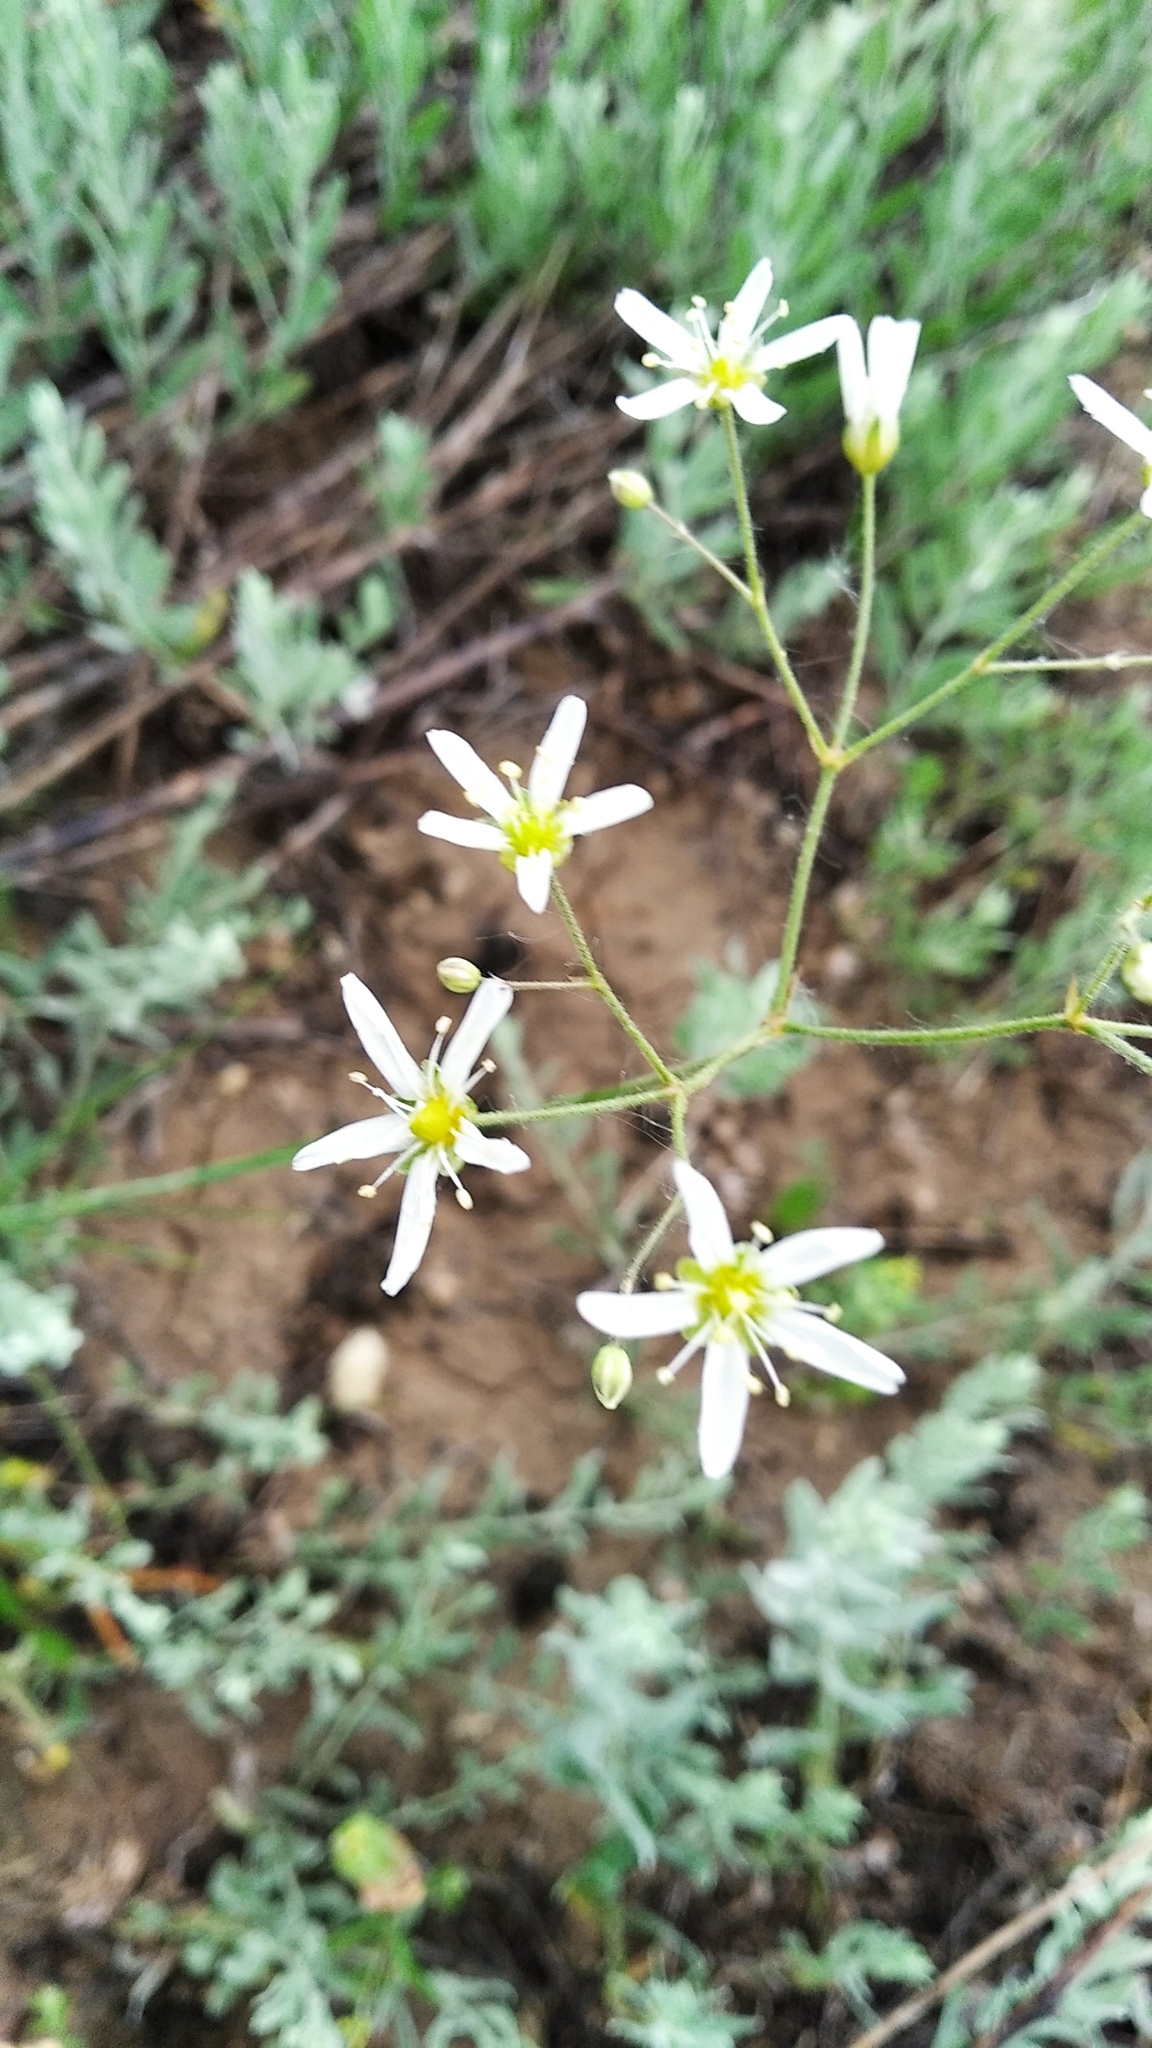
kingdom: Plantae
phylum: Tracheophyta
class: Magnoliopsida
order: Caryophyllales
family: Caryophyllaceae
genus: Eremogone
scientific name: Eremogone biebersteinii
